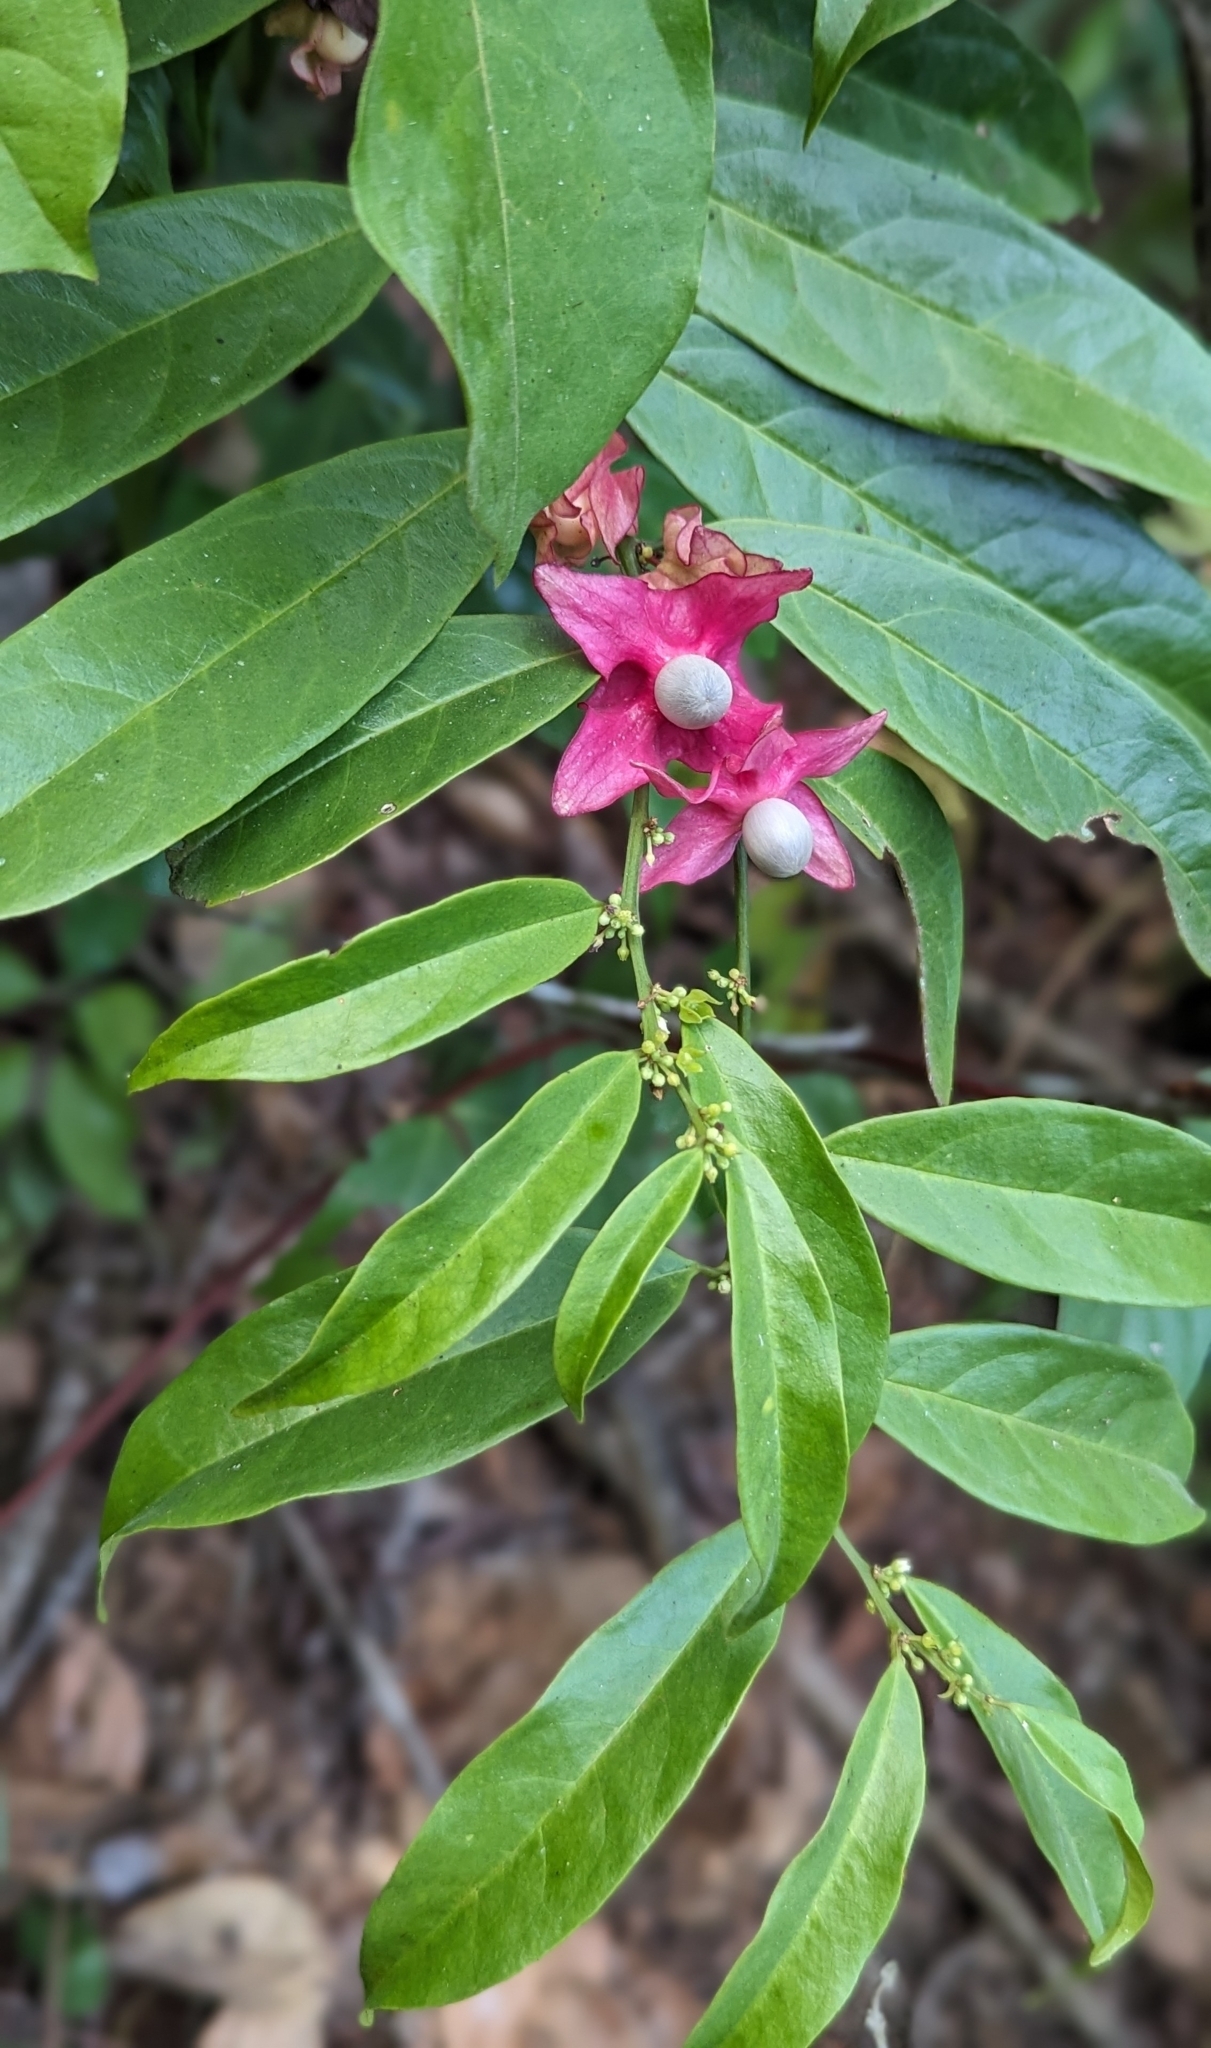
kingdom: Plantae
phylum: Tracheophyta
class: Magnoliopsida
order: Santalales
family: Erythropalaceae
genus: Heisteria
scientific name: Heisteria parvifolia
